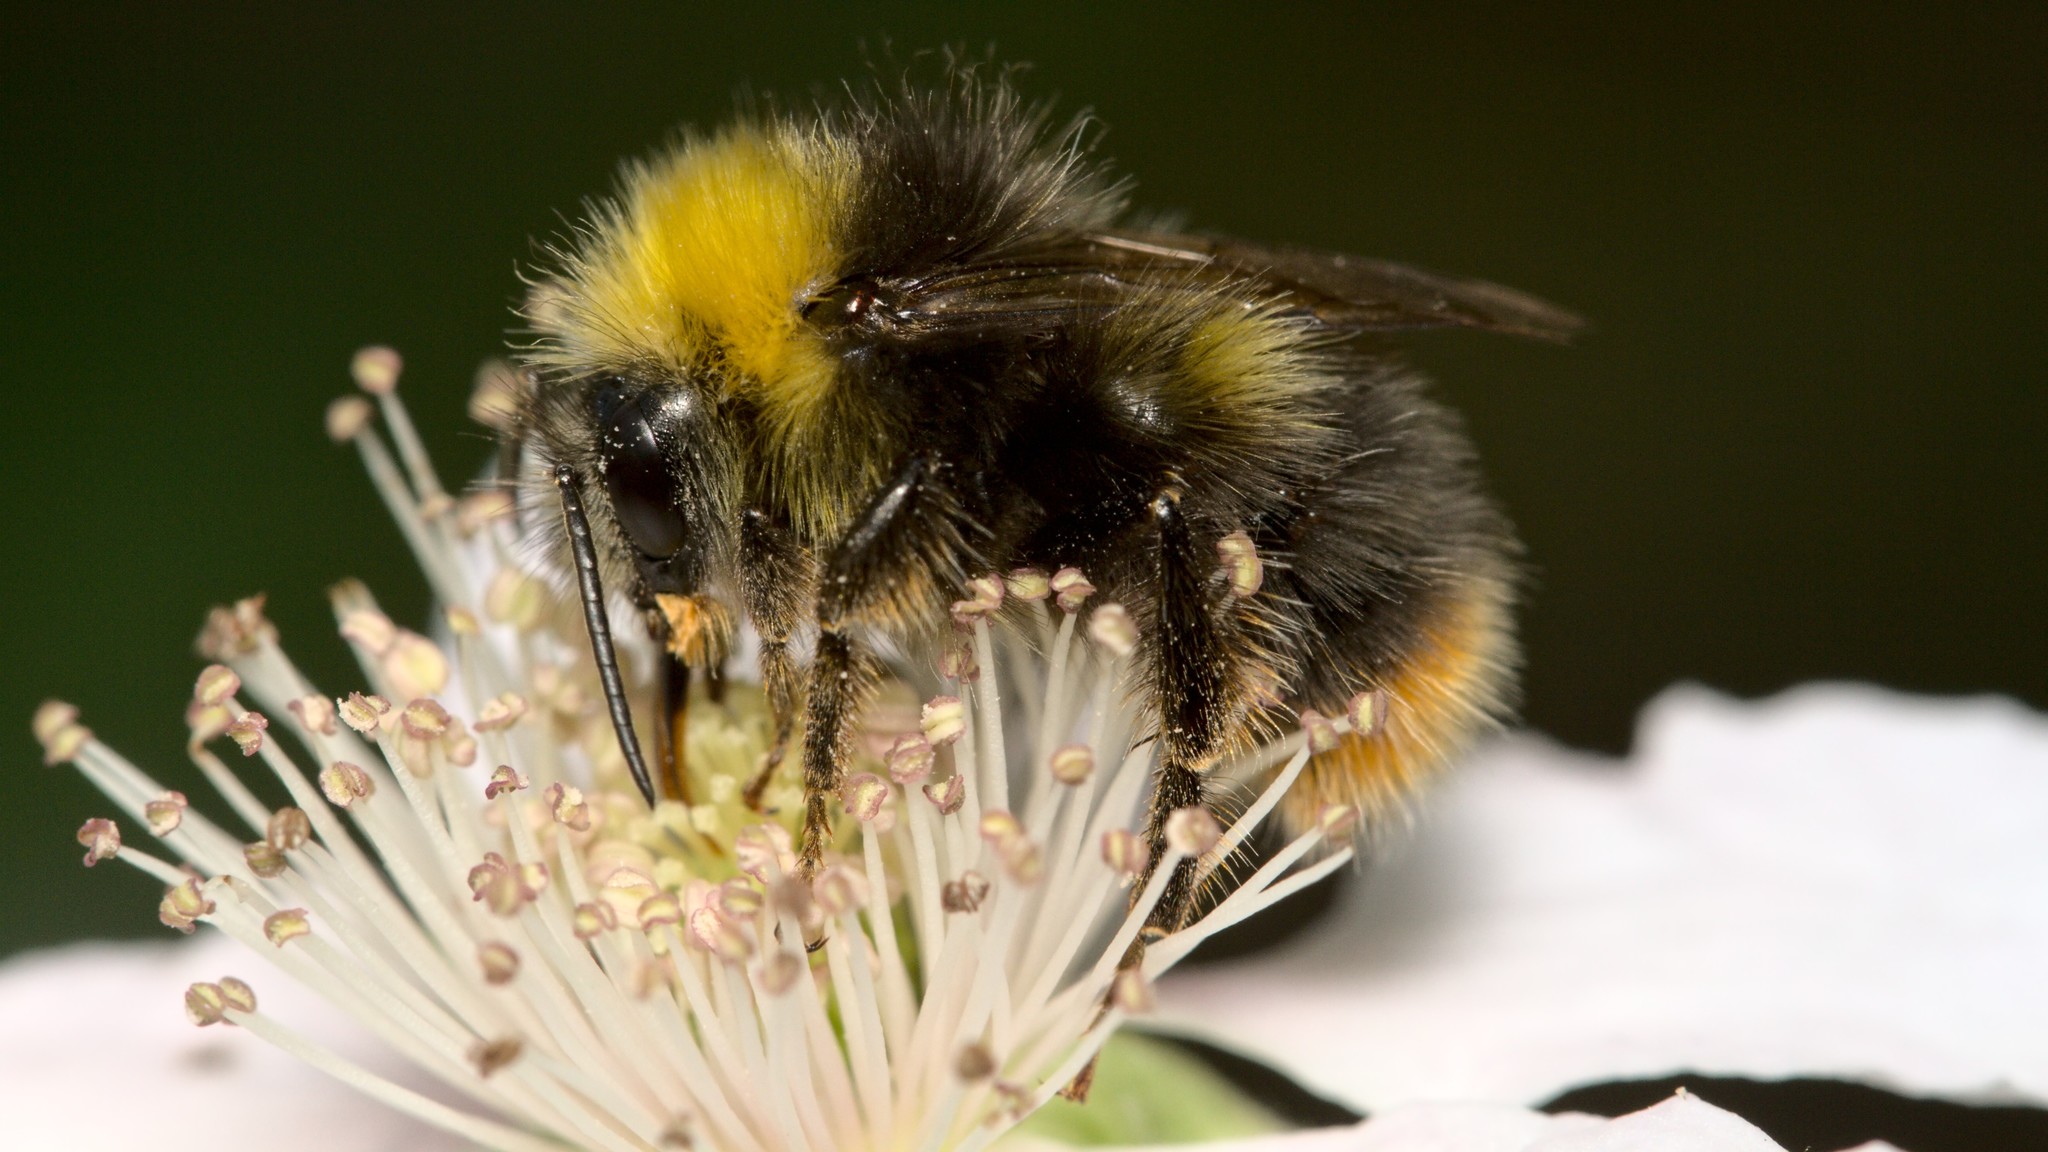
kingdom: Animalia
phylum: Arthropoda
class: Insecta
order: Hymenoptera
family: Apidae
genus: Bombus
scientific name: Bombus pratorum
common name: Early humble-bee
